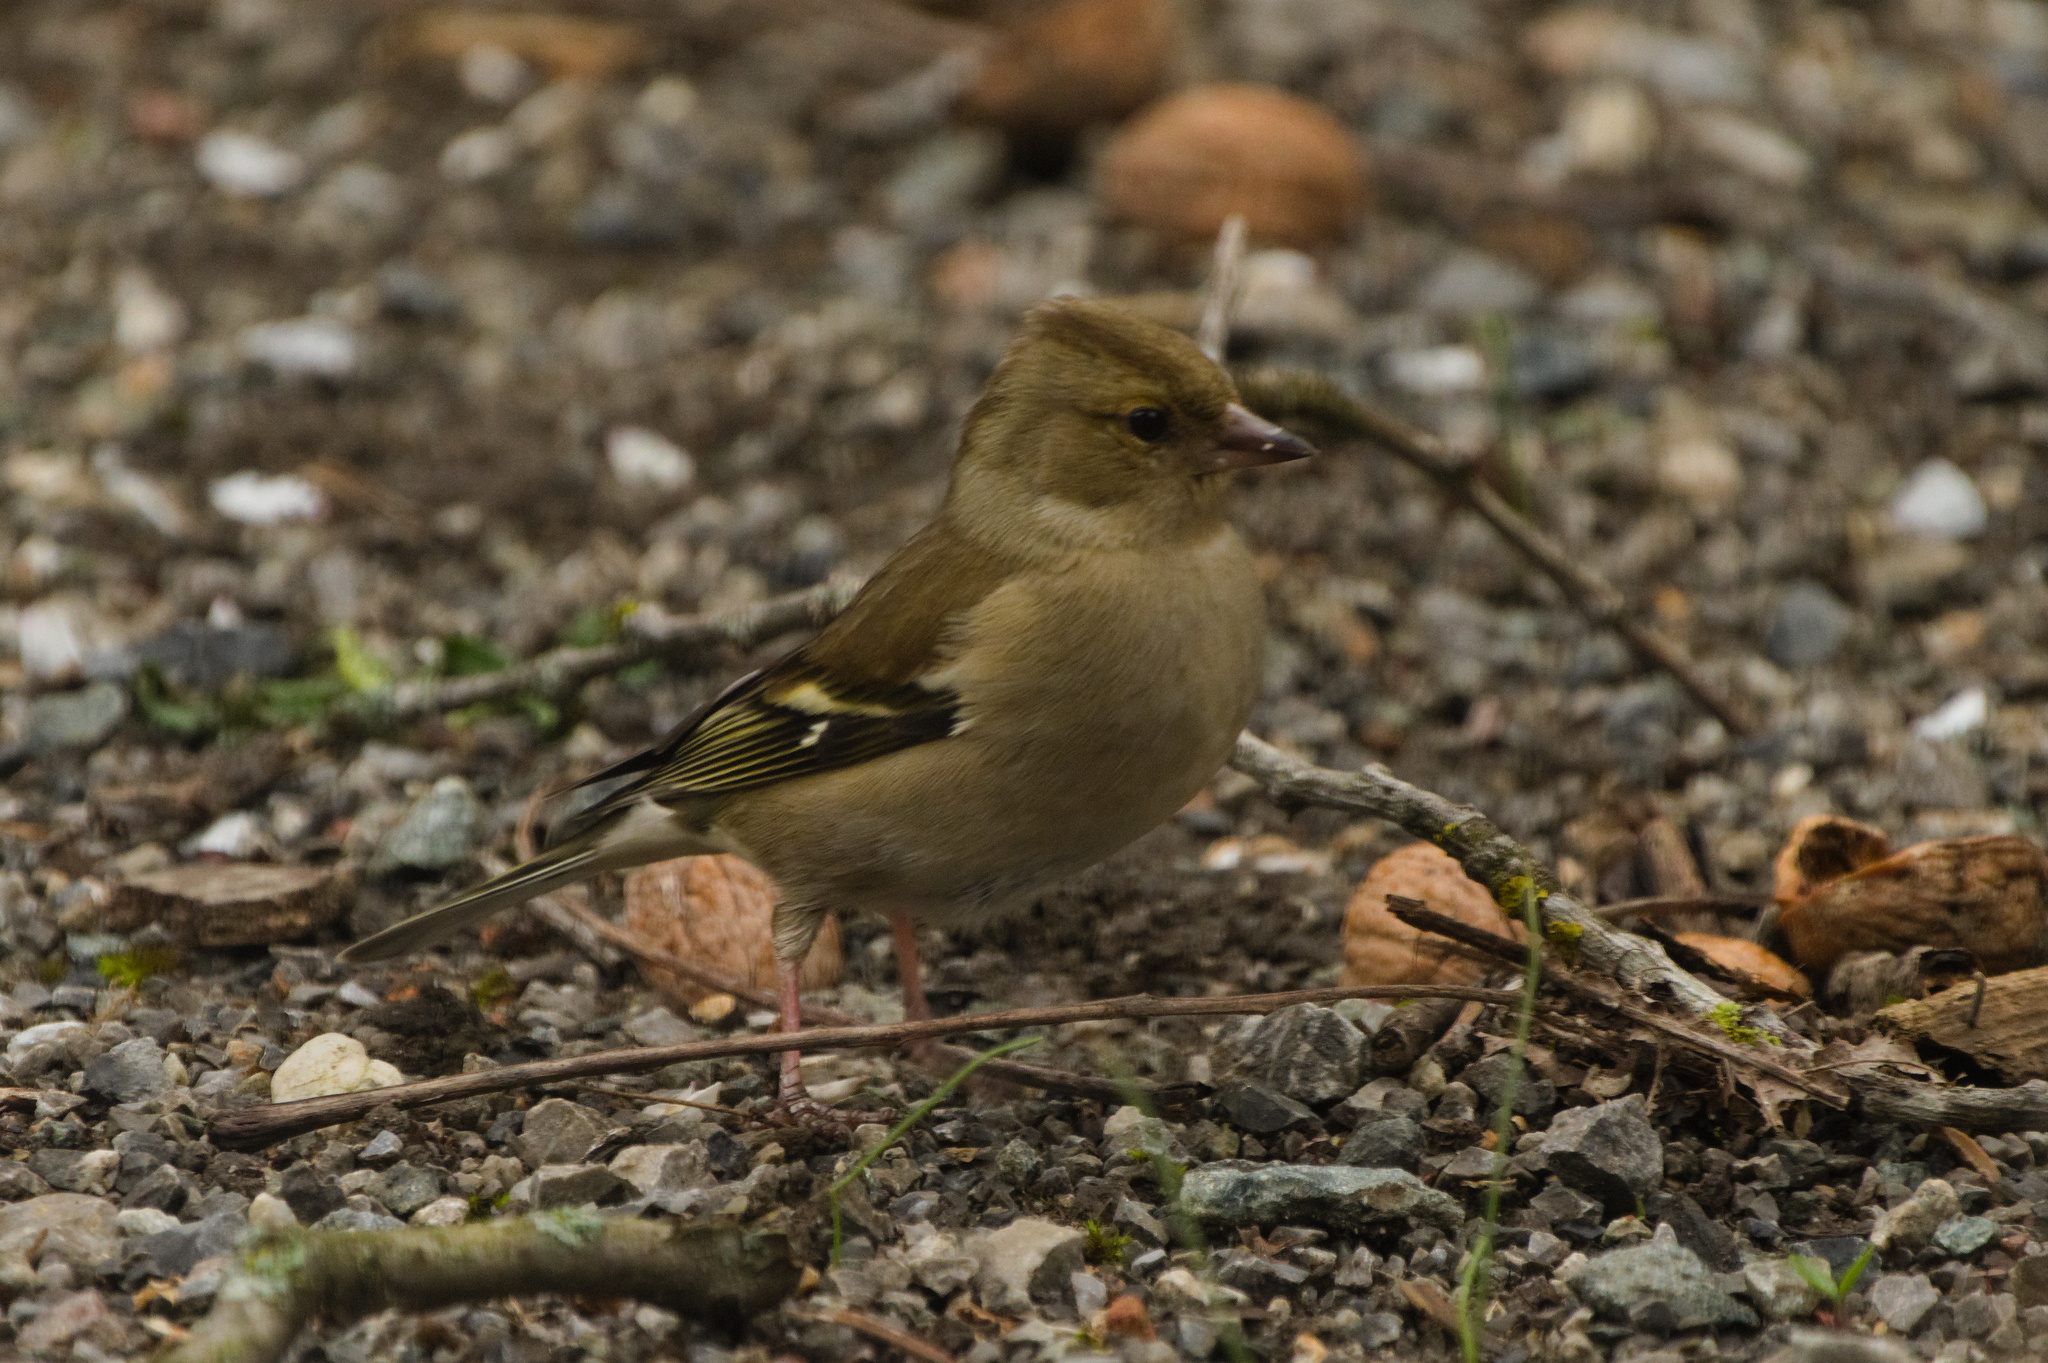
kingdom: Animalia
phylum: Chordata
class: Aves
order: Passeriformes
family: Fringillidae
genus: Fringilla
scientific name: Fringilla coelebs
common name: Common chaffinch
